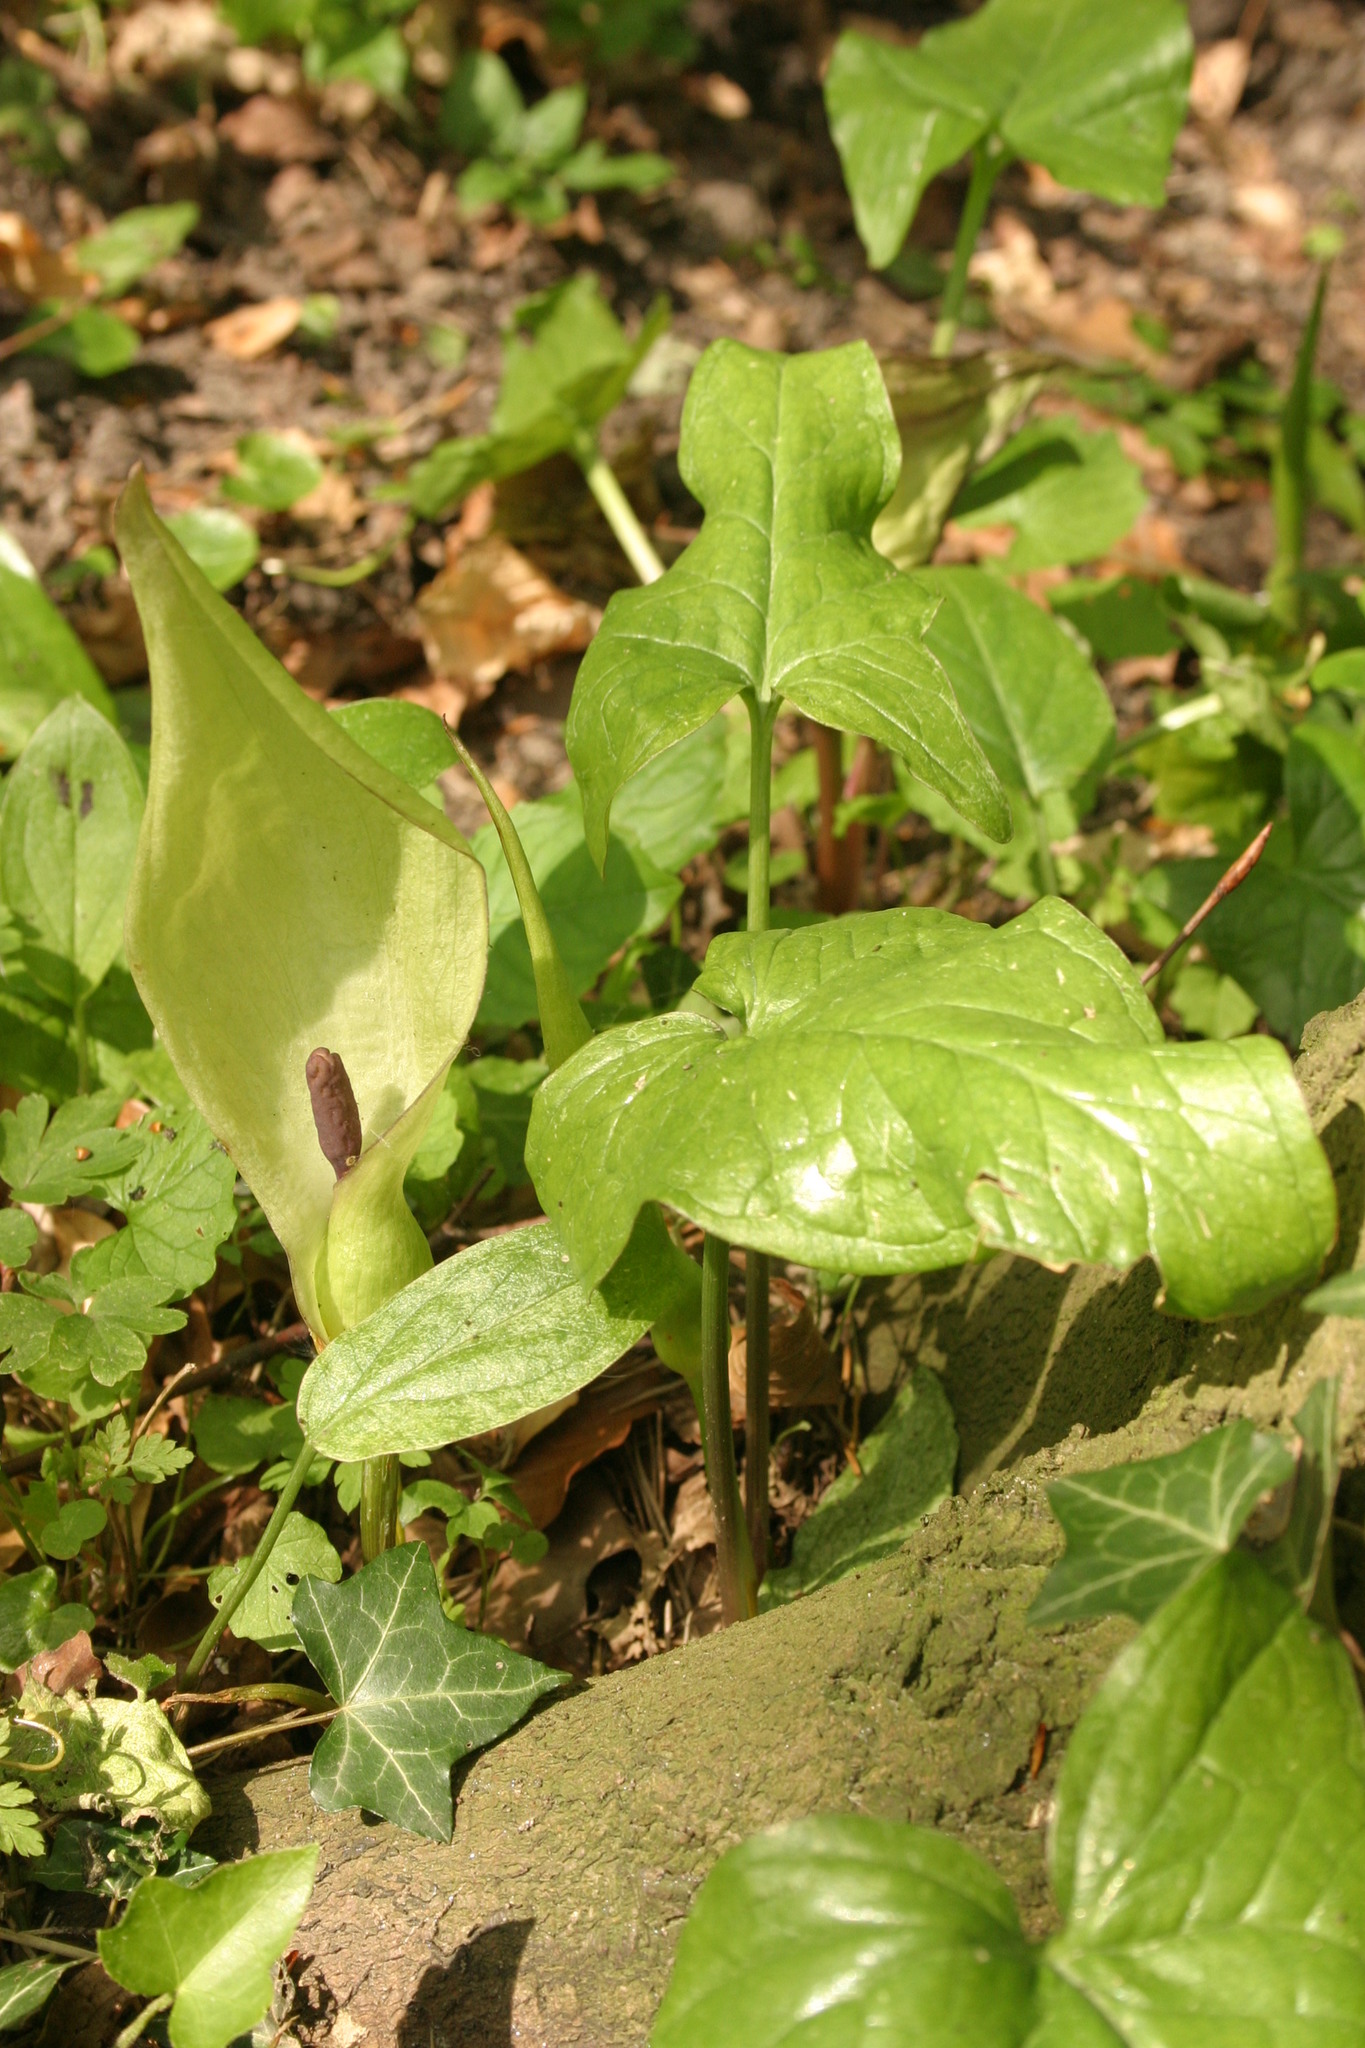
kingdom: Plantae
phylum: Tracheophyta
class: Liliopsida
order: Alismatales
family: Araceae
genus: Arum
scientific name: Arum maculatum
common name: Lords-and-ladies
